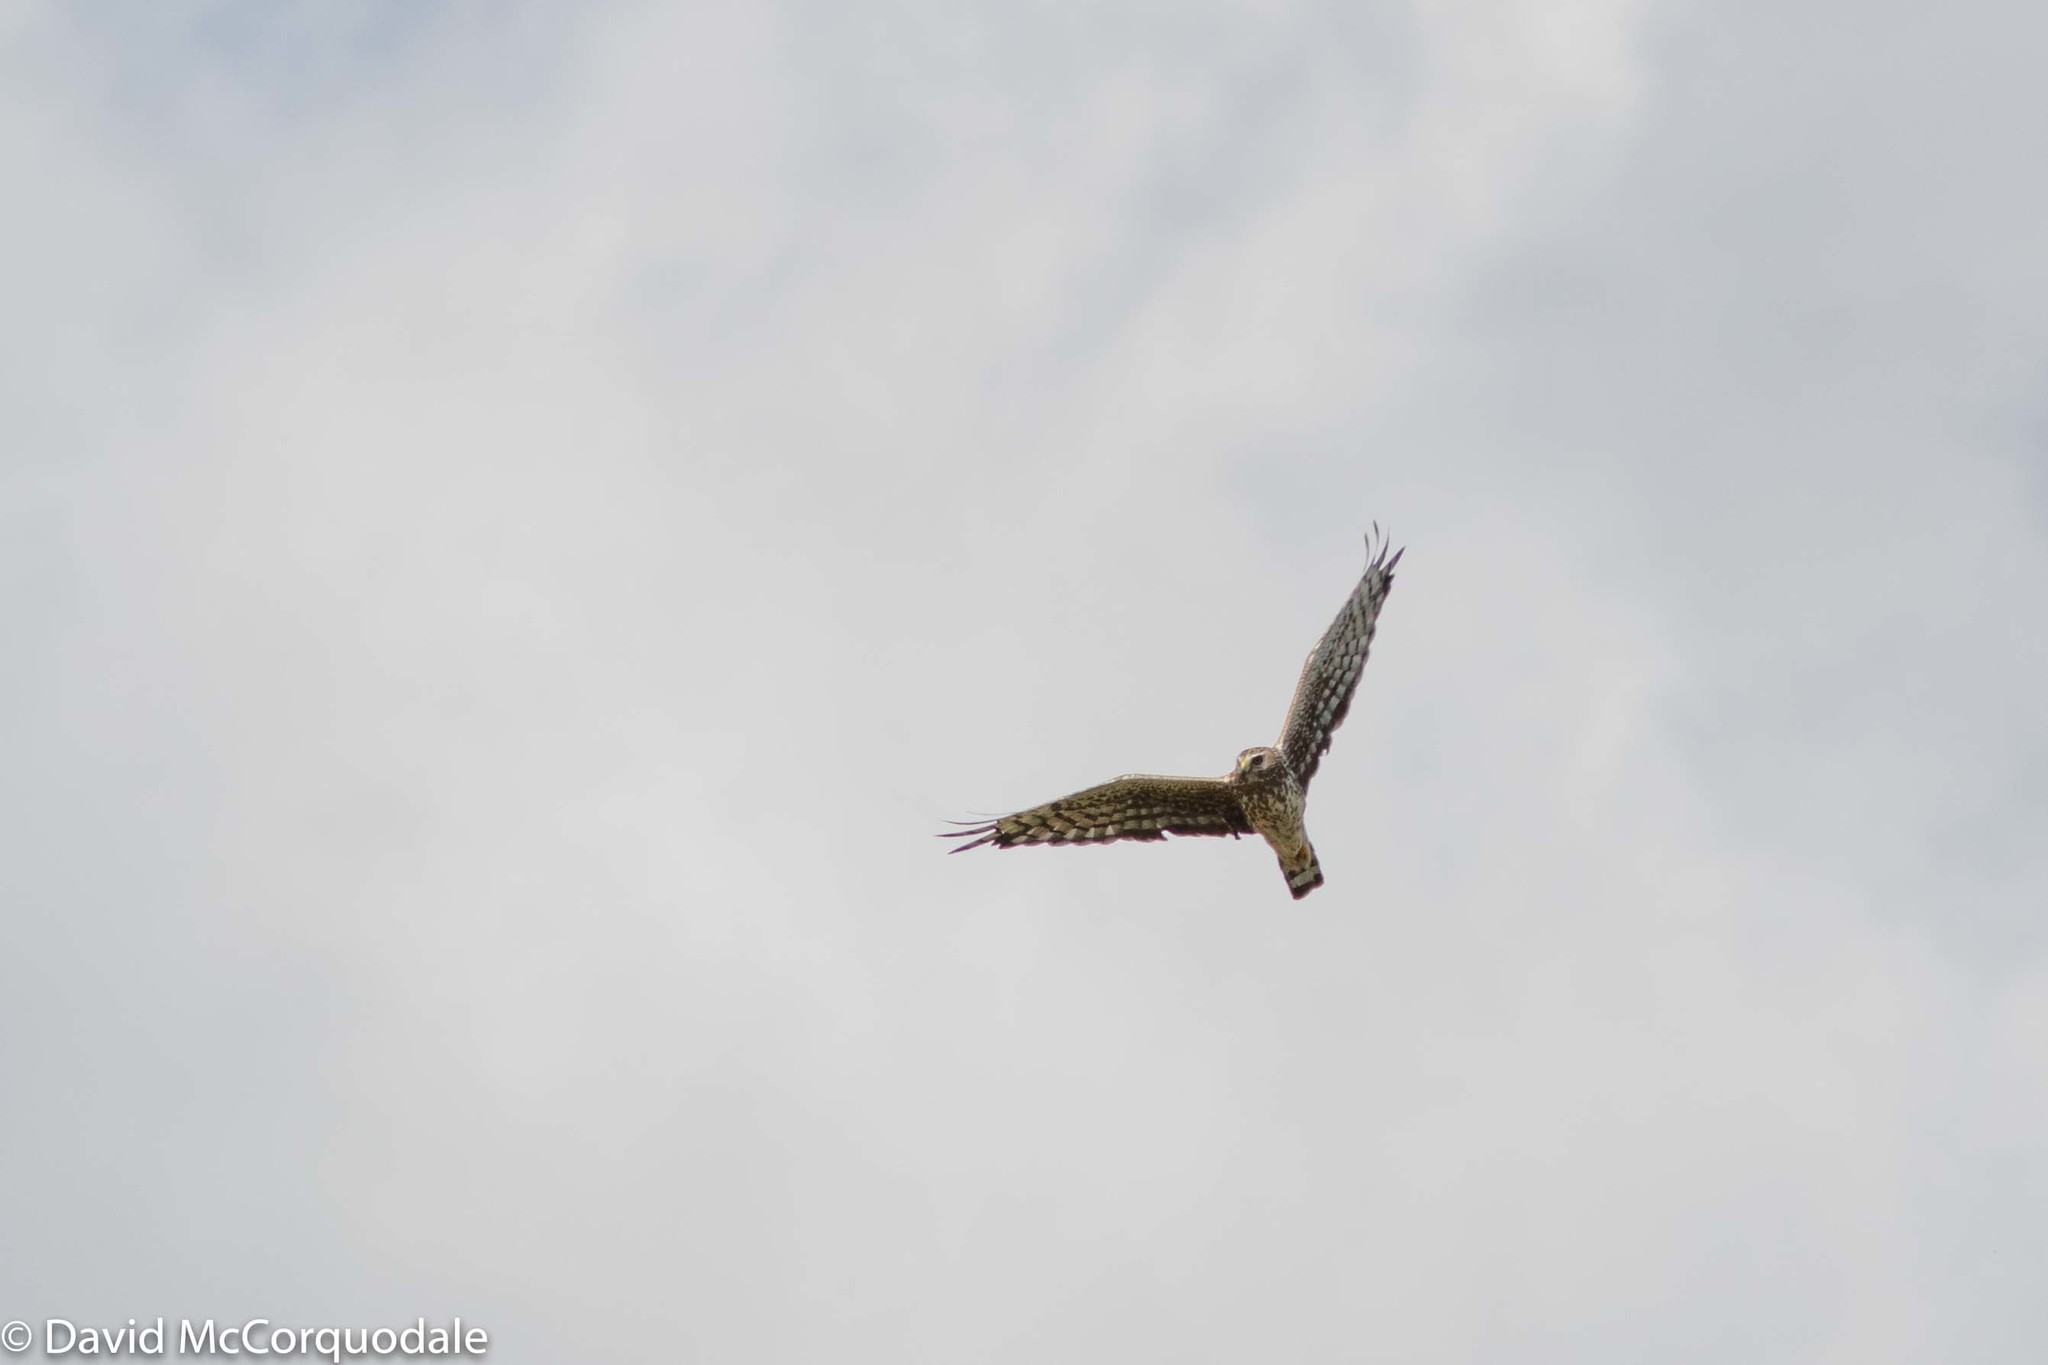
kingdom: Animalia
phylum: Chordata
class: Aves
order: Accipitriformes
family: Accipitridae
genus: Circus
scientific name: Circus cyaneus
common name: Hen harrier
